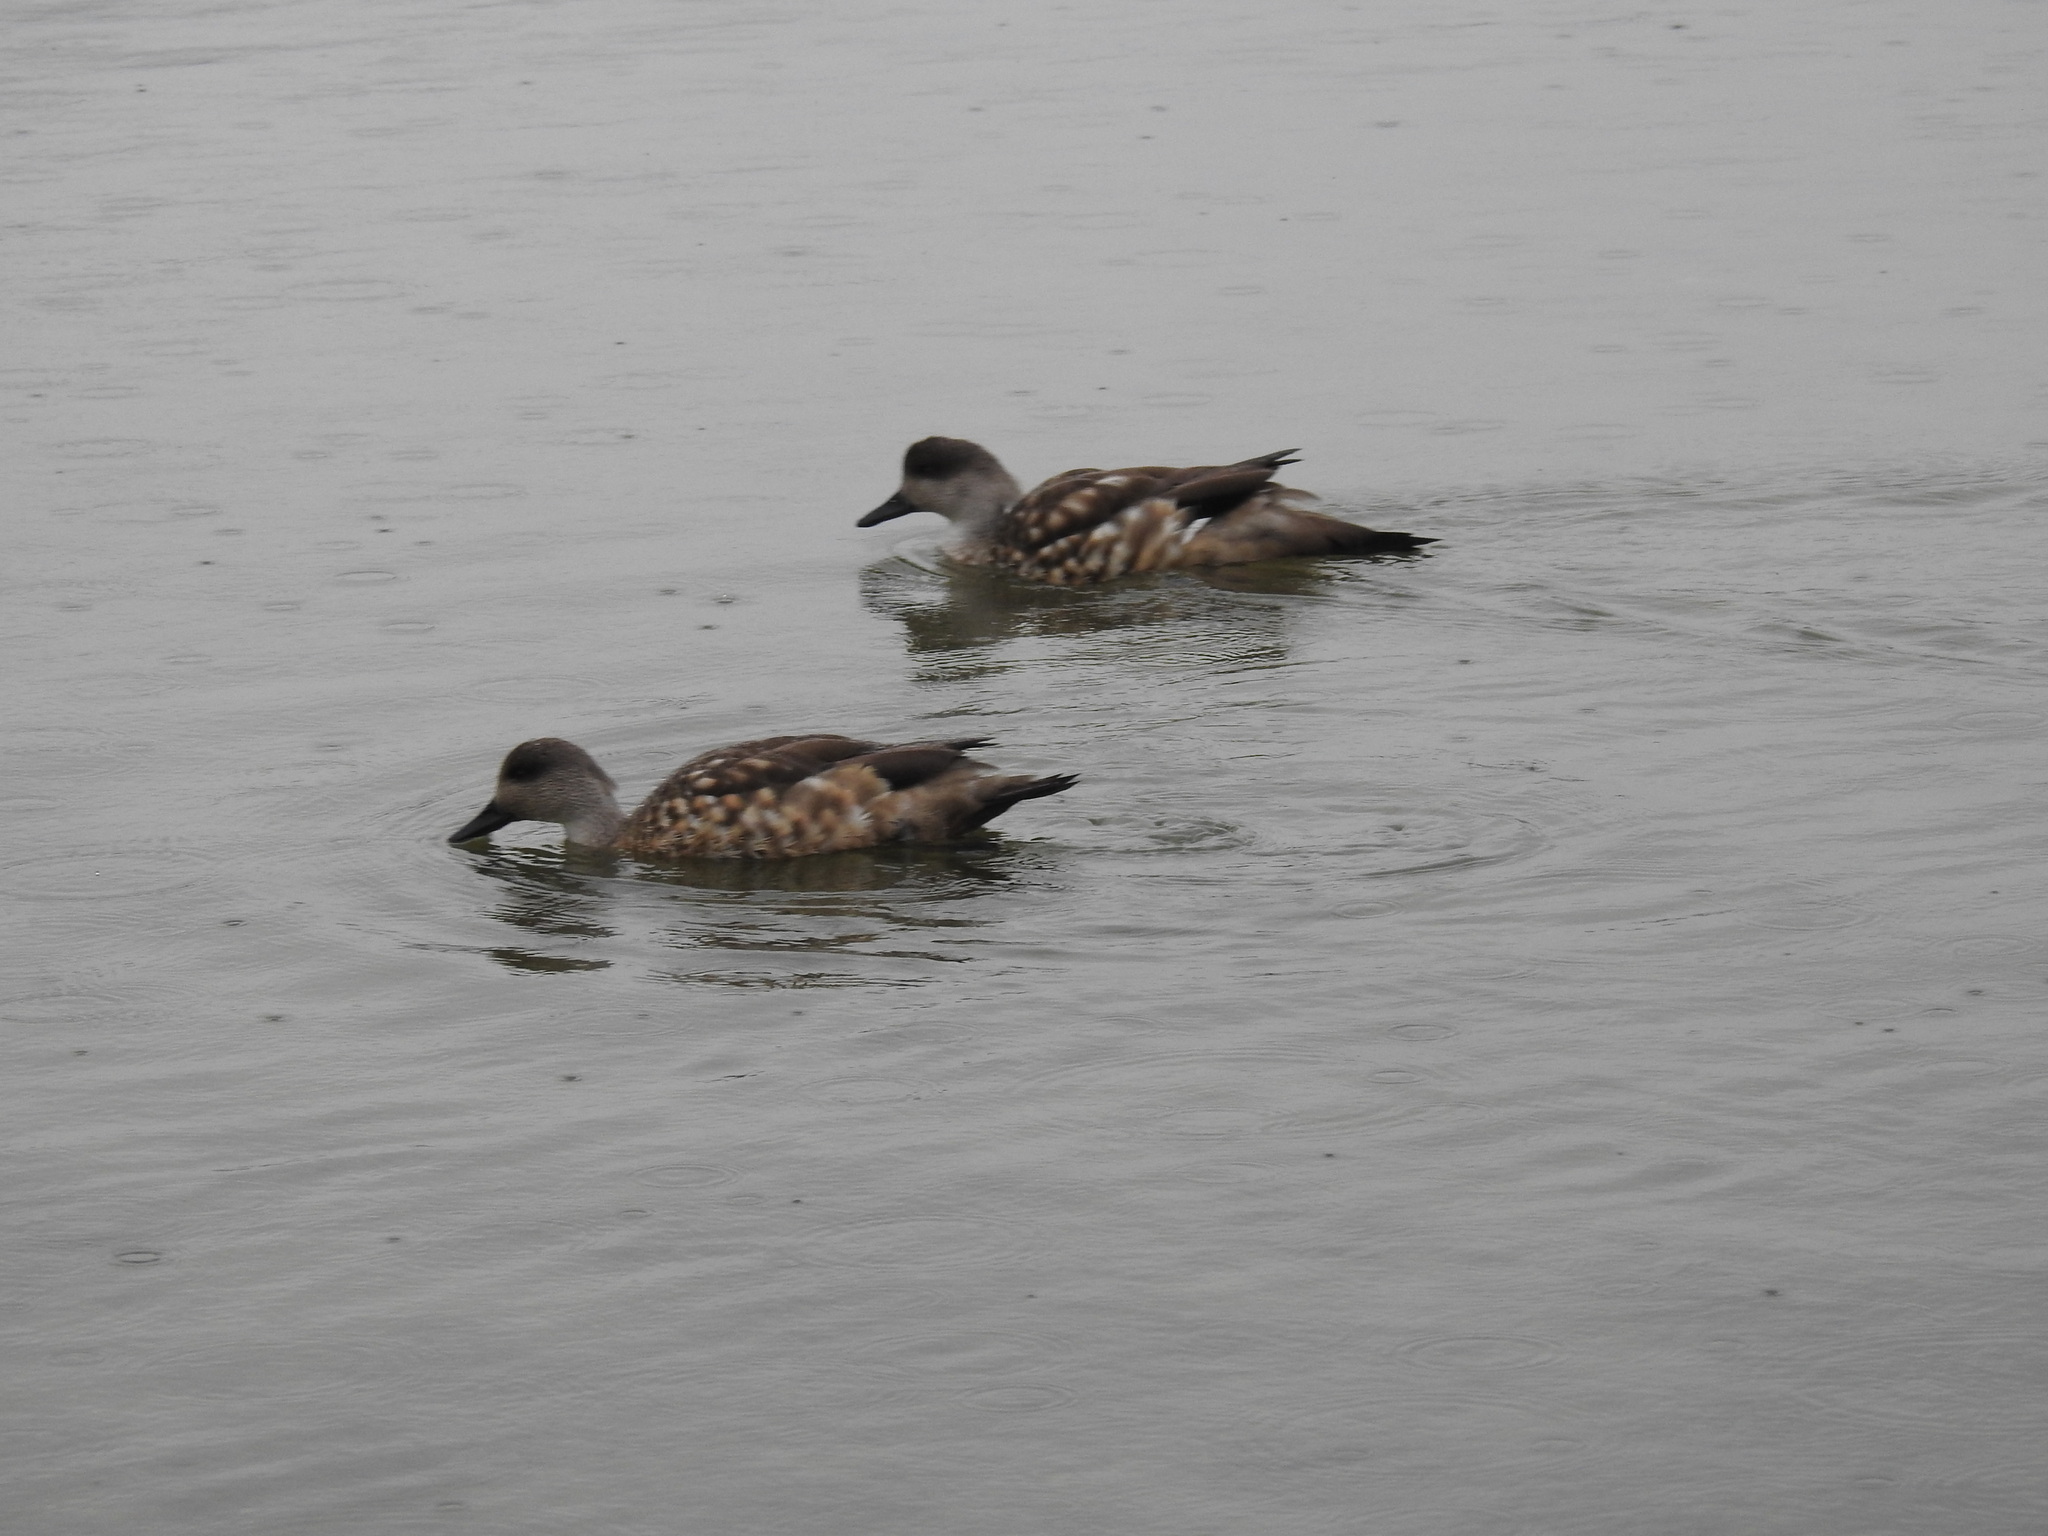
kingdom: Animalia
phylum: Chordata
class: Aves
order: Anseriformes
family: Anatidae
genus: Lophonetta
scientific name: Lophonetta specularioides
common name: Crested duck
